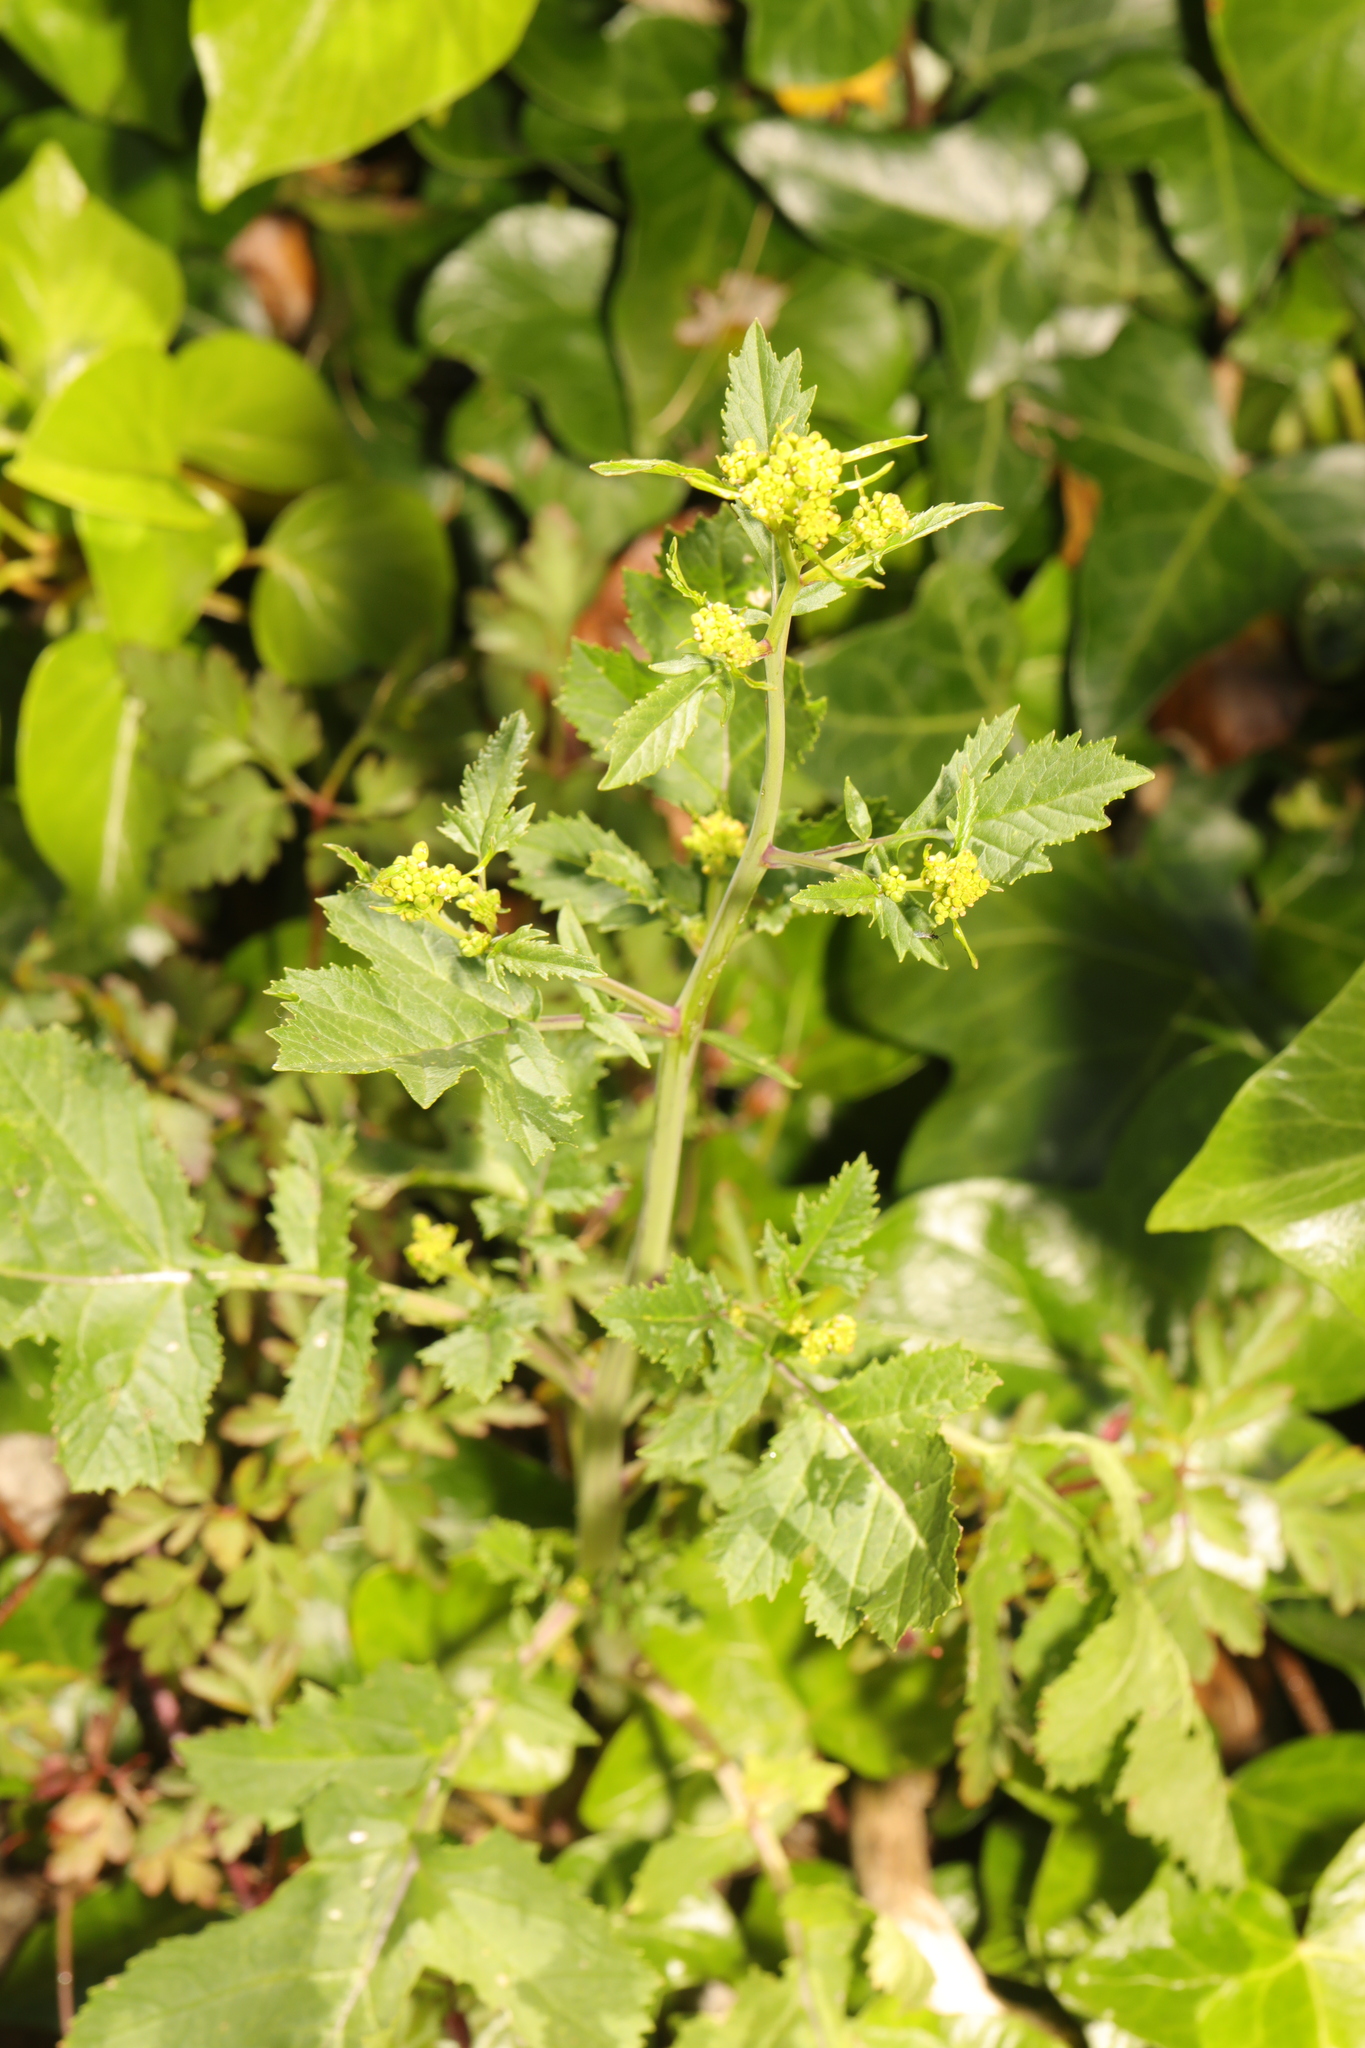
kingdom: Plantae
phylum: Tracheophyta
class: Magnoliopsida
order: Brassicales
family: Brassicaceae
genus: Brassica
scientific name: Brassica nigra
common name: Black mustard
